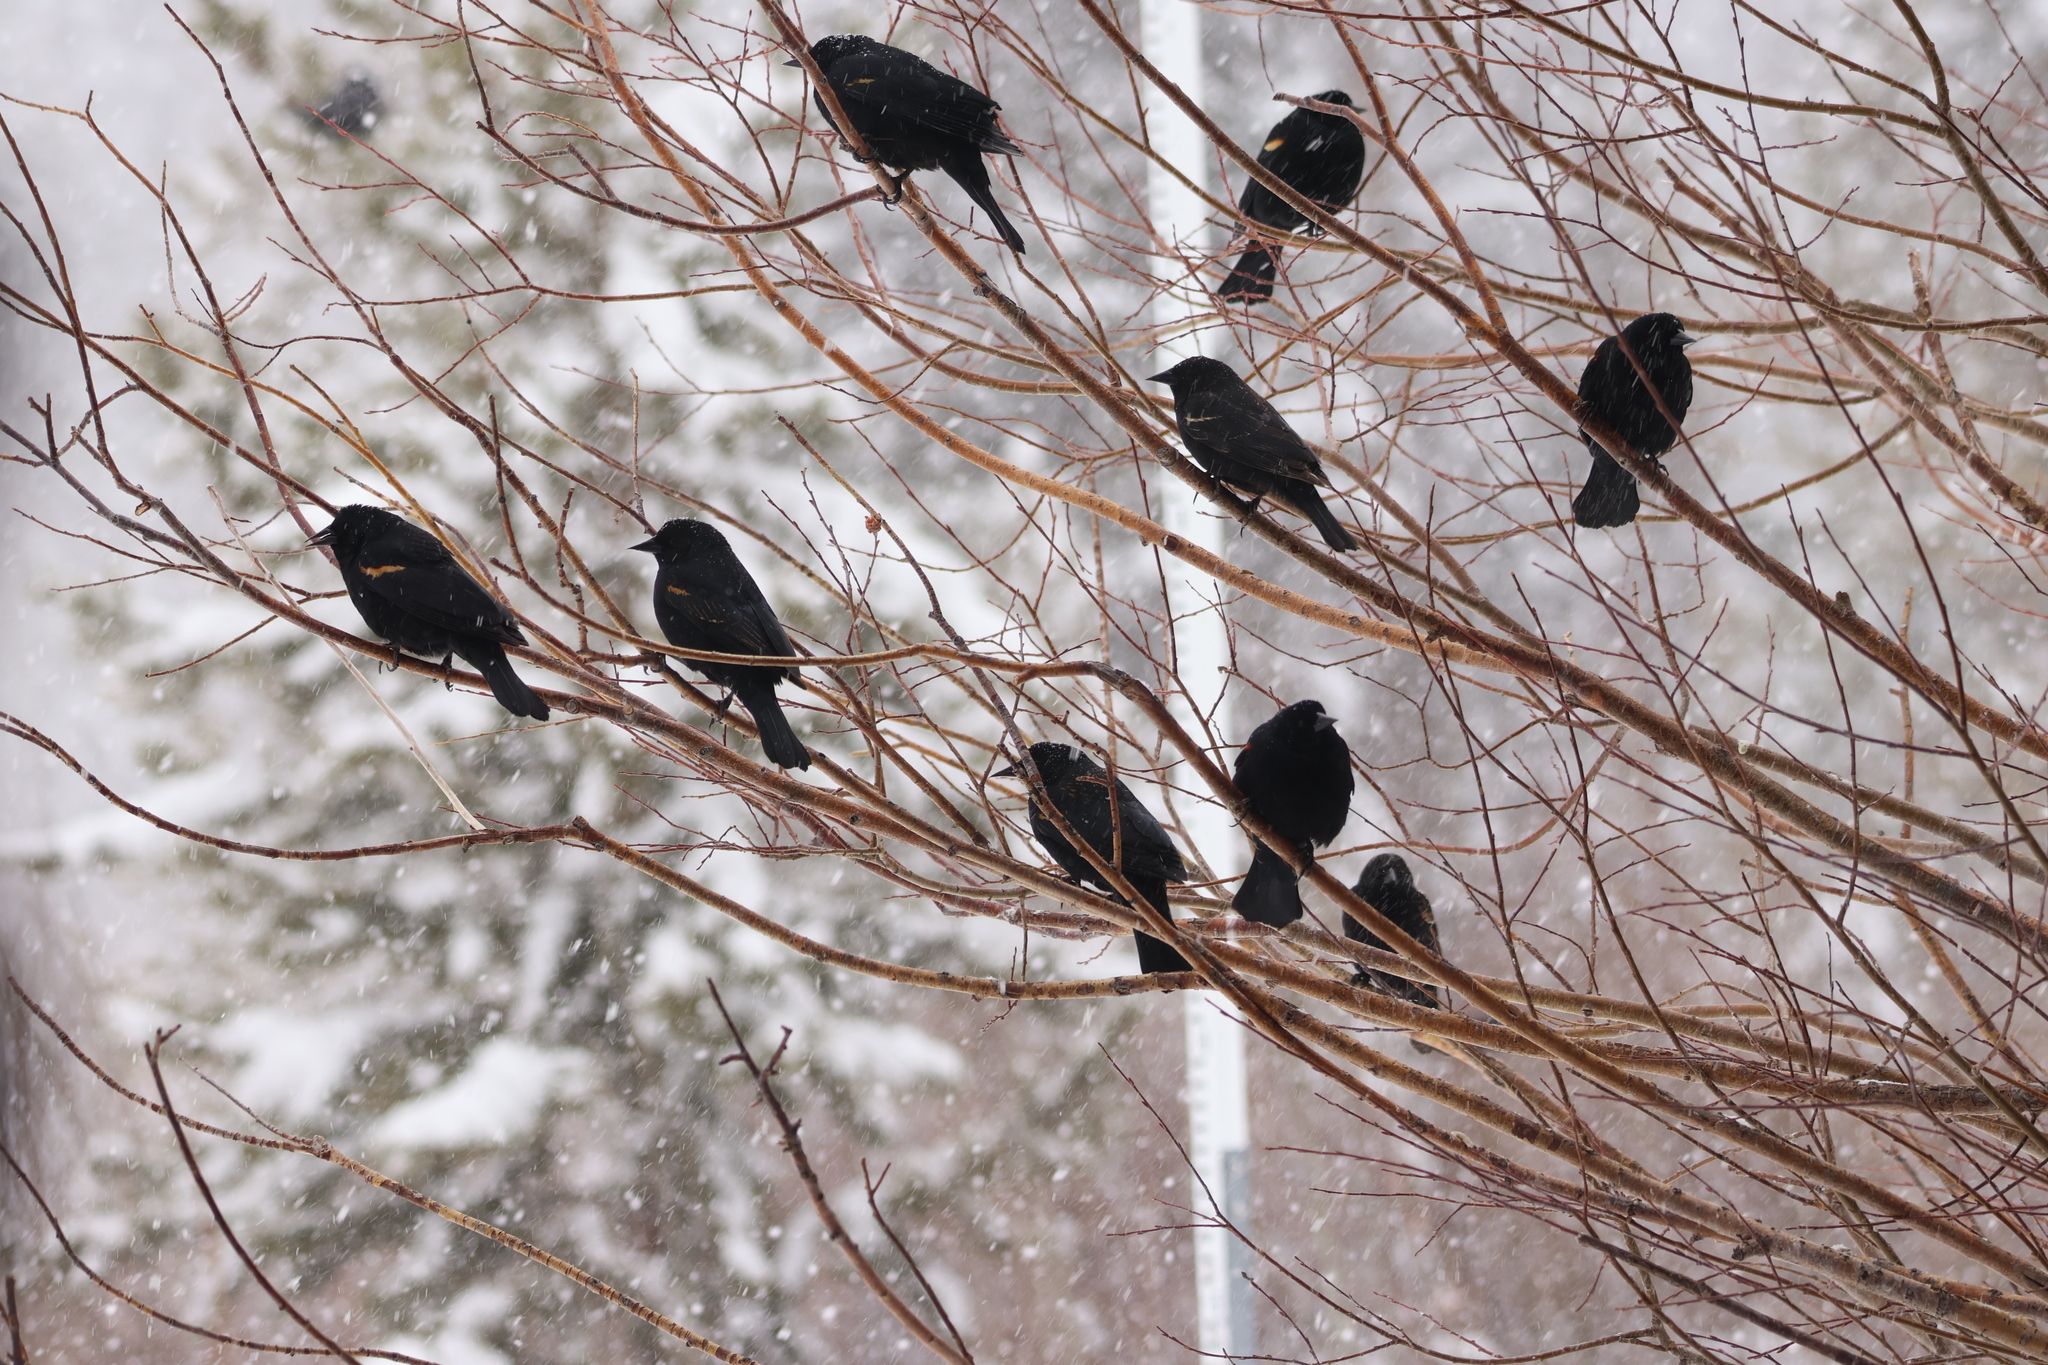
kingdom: Animalia
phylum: Chordata
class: Aves
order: Passeriformes
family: Icteridae
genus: Agelaius
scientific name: Agelaius phoeniceus
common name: Red-winged blackbird
